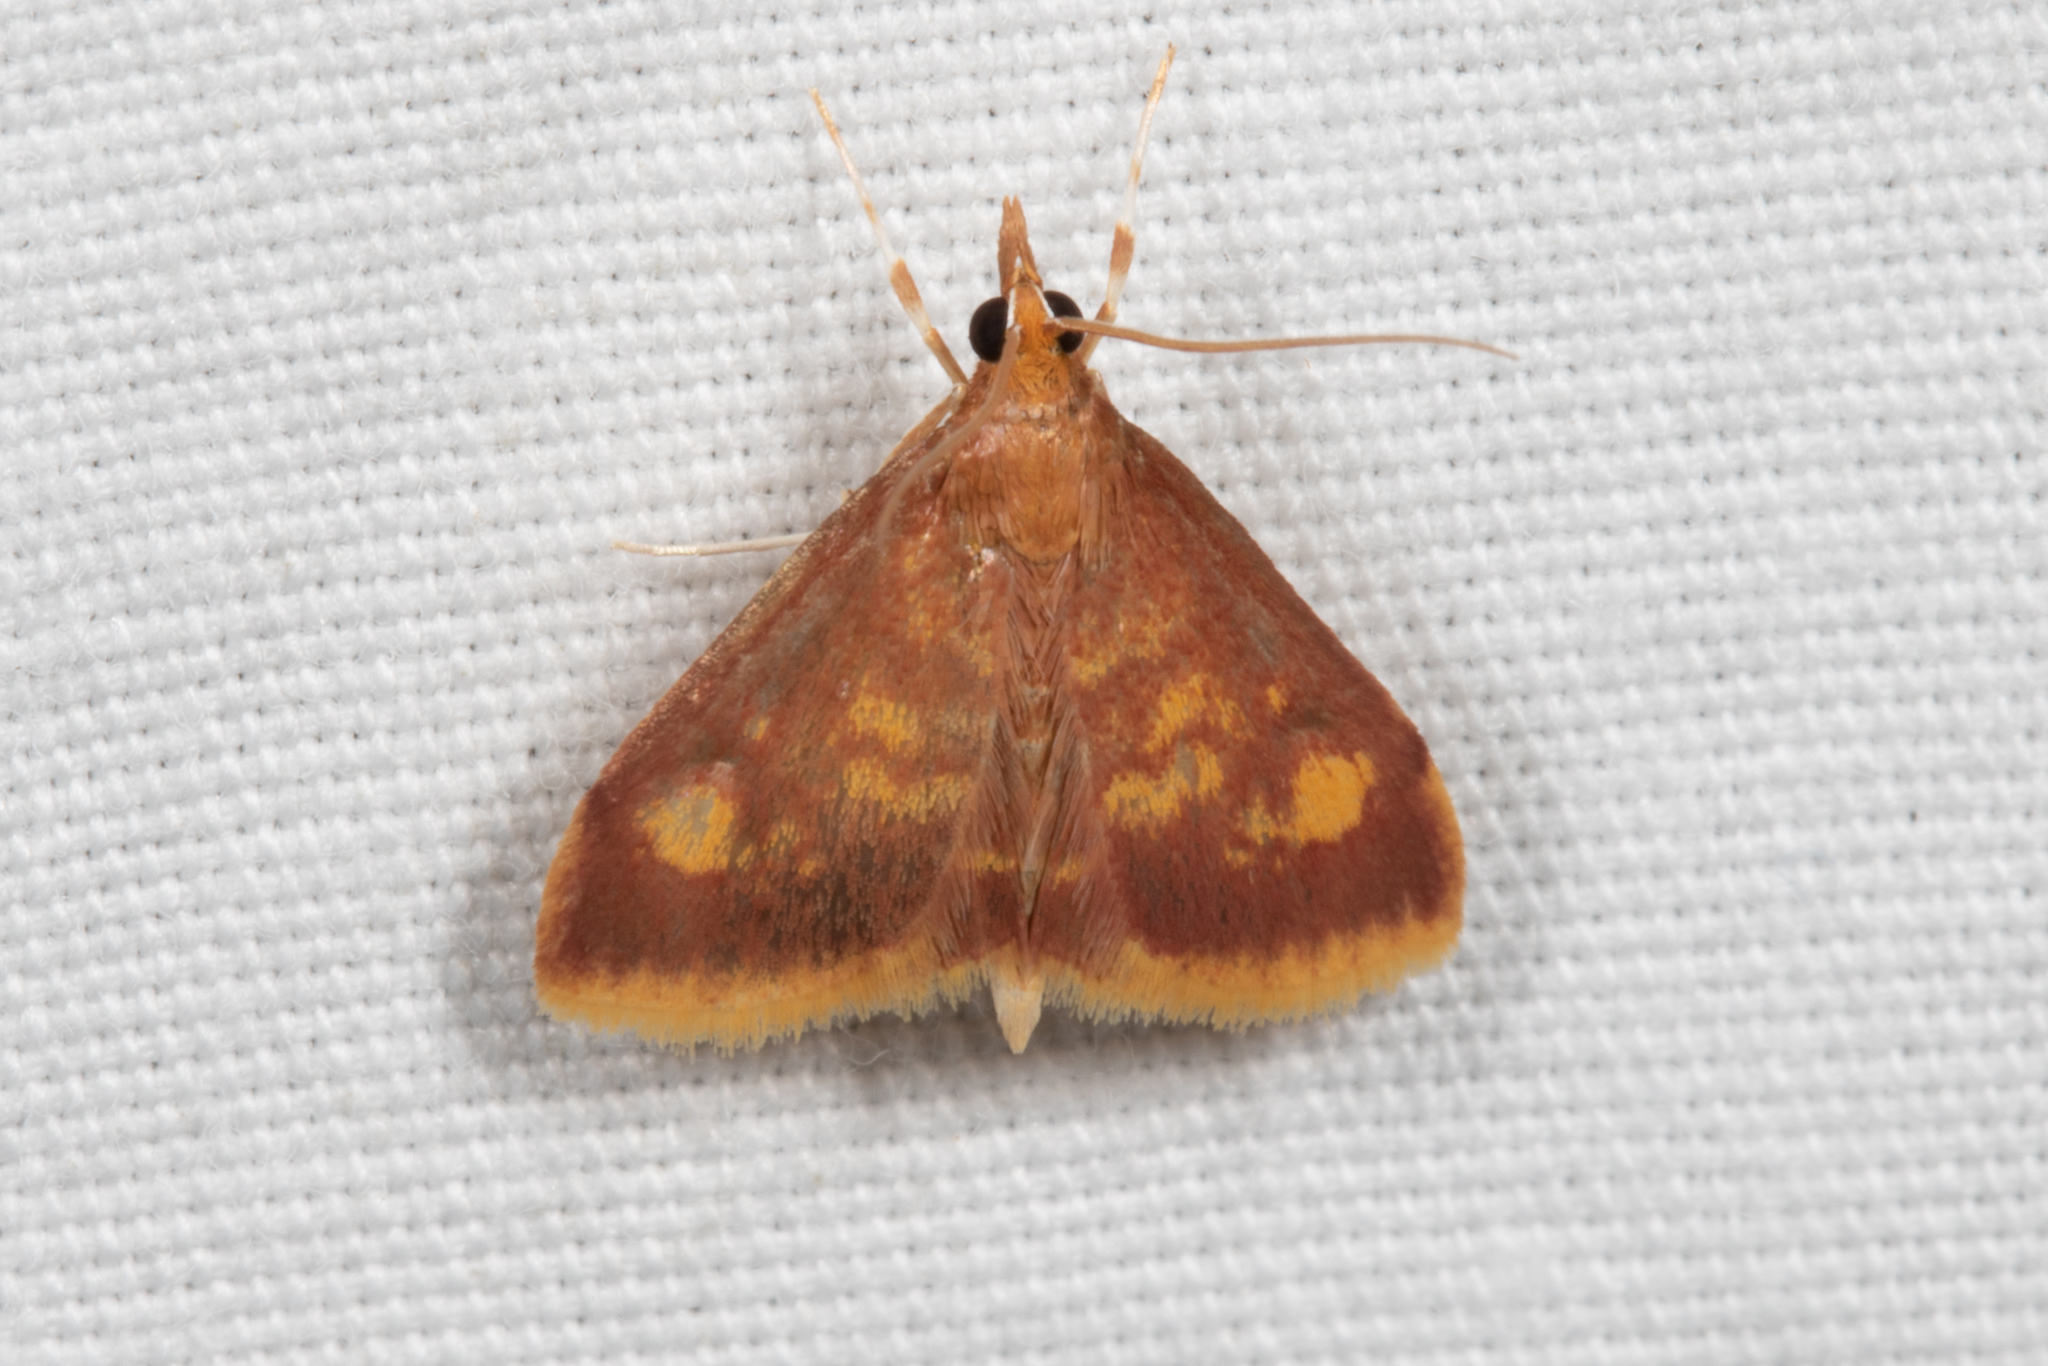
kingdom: Animalia
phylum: Arthropoda
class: Insecta
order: Lepidoptera
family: Crambidae
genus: Pyrausta
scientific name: Pyrausta acrionalis
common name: Mint-loving pyrausta moth
